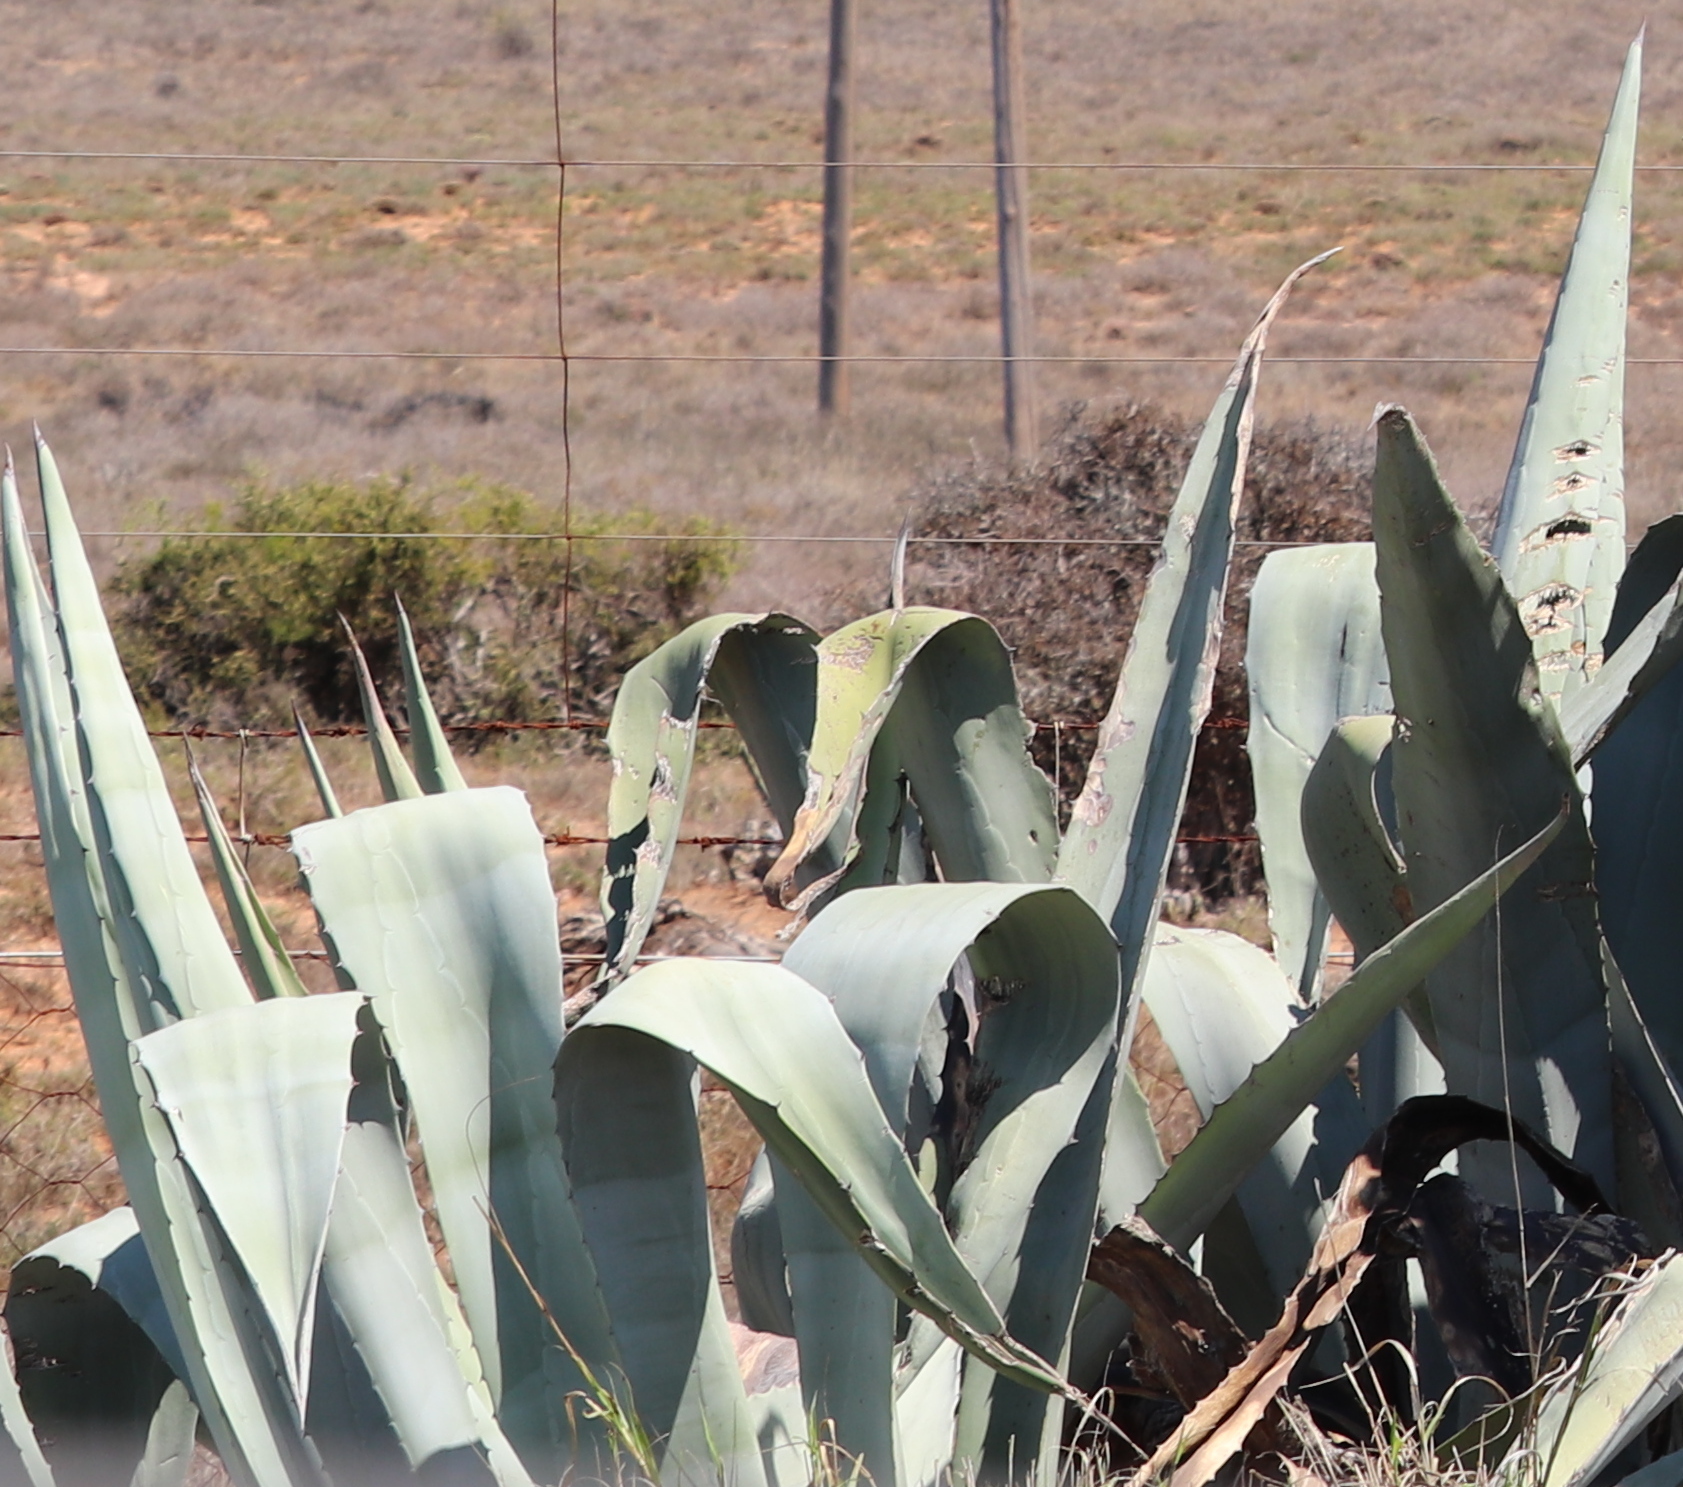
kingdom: Plantae
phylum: Tracheophyta
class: Liliopsida
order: Asparagales
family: Asparagaceae
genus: Agave
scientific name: Agave americana
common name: Centuryplant
